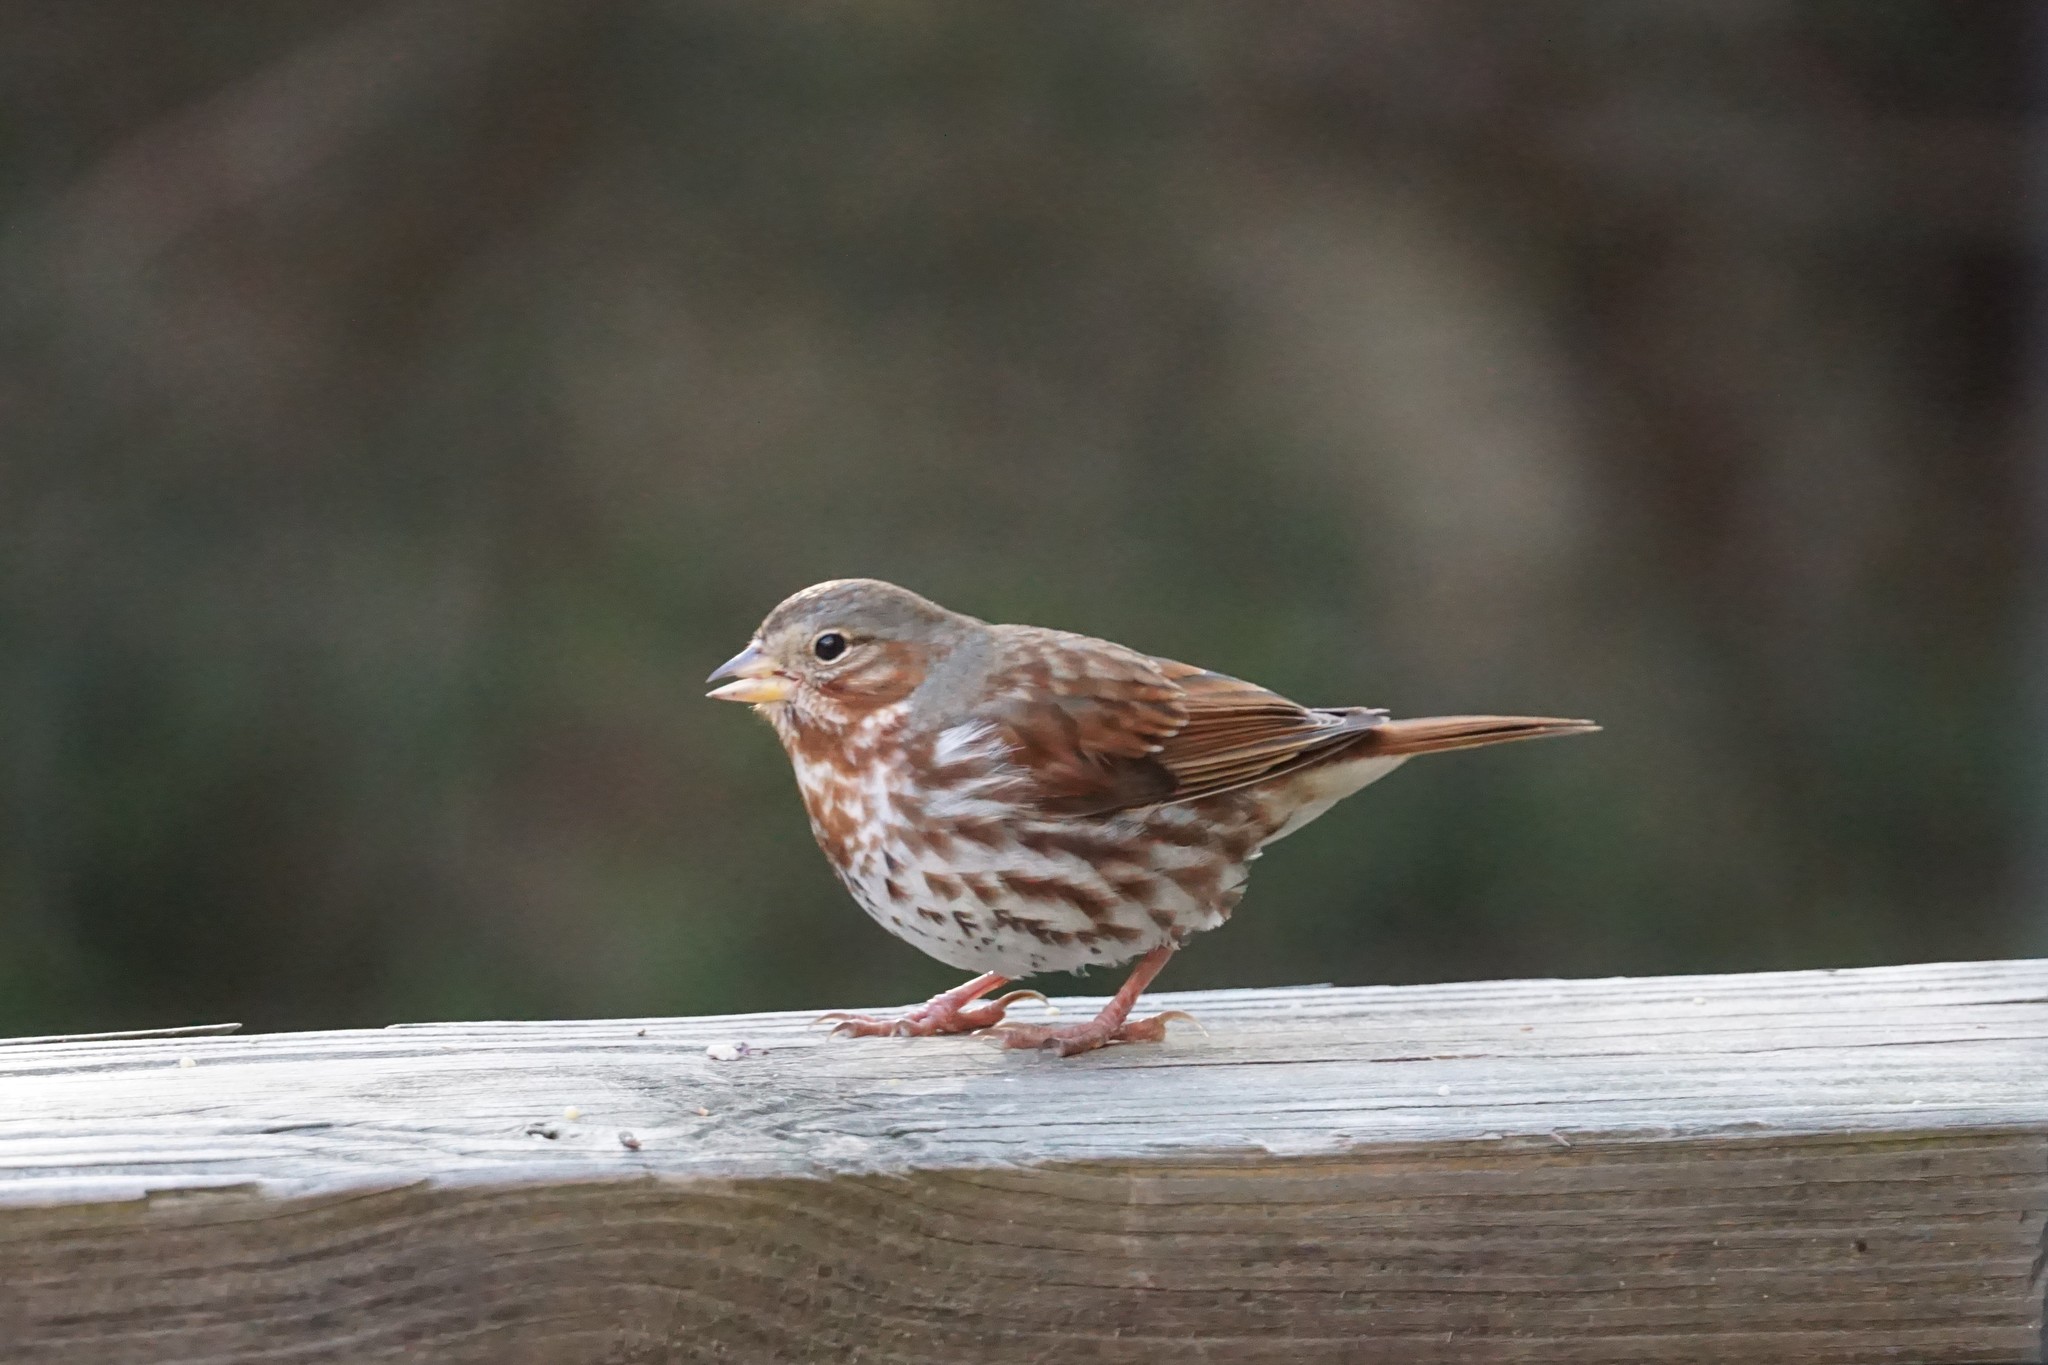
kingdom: Animalia
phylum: Chordata
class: Aves
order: Passeriformes
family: Passerellidae
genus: Passerella
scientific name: Passerella iliaca
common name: Fox sparrow
